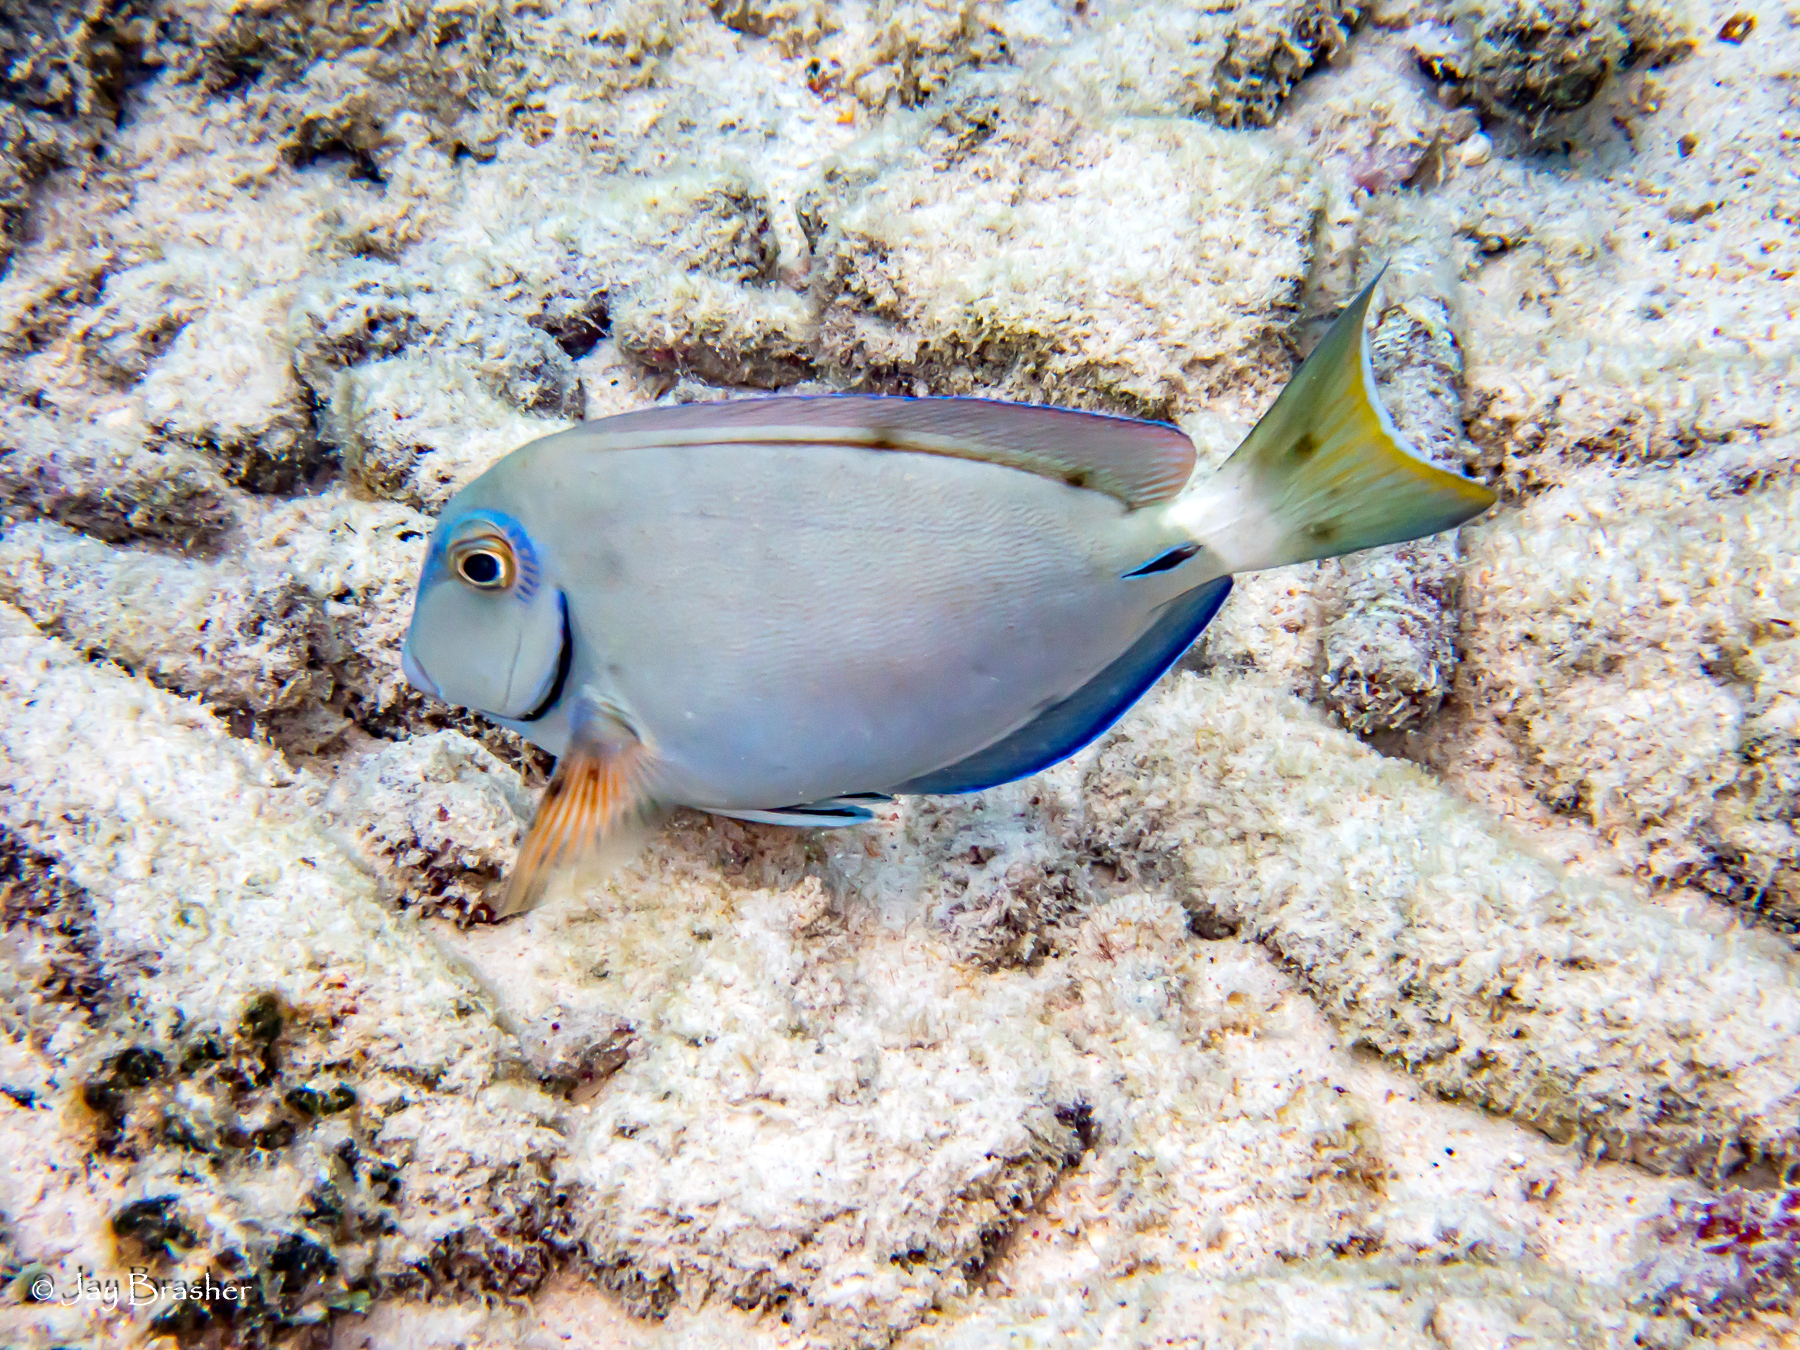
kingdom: Animalia
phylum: Chordata
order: Perciformes
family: Acanthuridae
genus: Acanthurus
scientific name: Acanthurus bahianus
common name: Ocean surgeon
